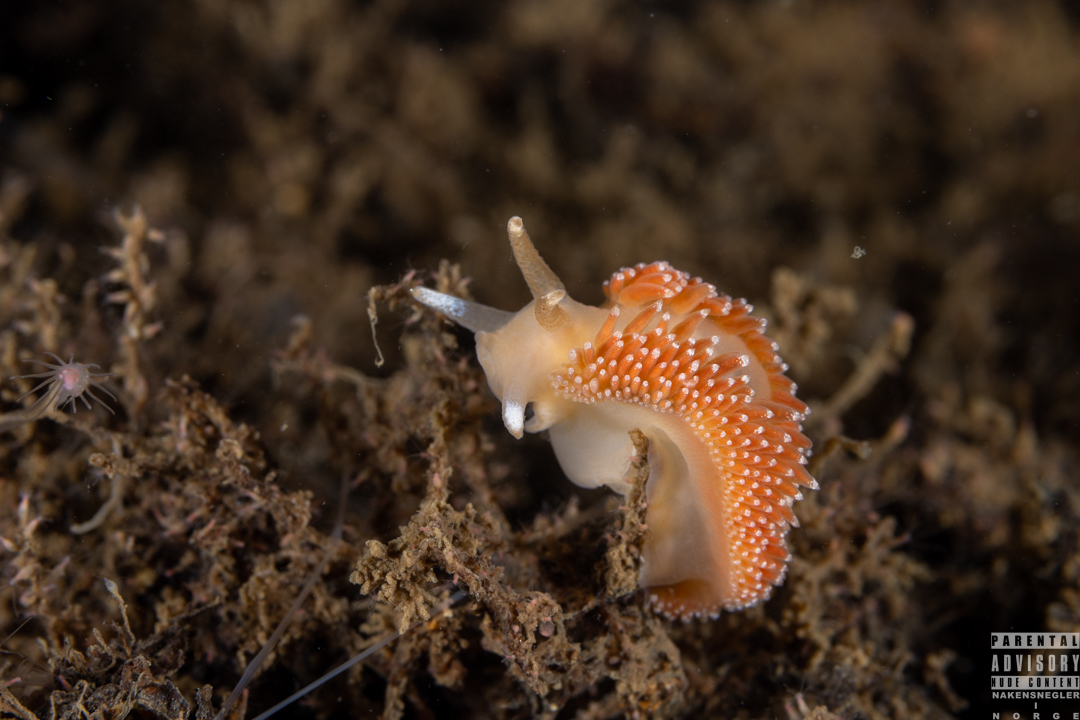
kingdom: Animalia
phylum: Mollusca
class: Gastropoda
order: Nudibranchia
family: Coryphellidae
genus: Coryphella
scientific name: Coryphella borealis
